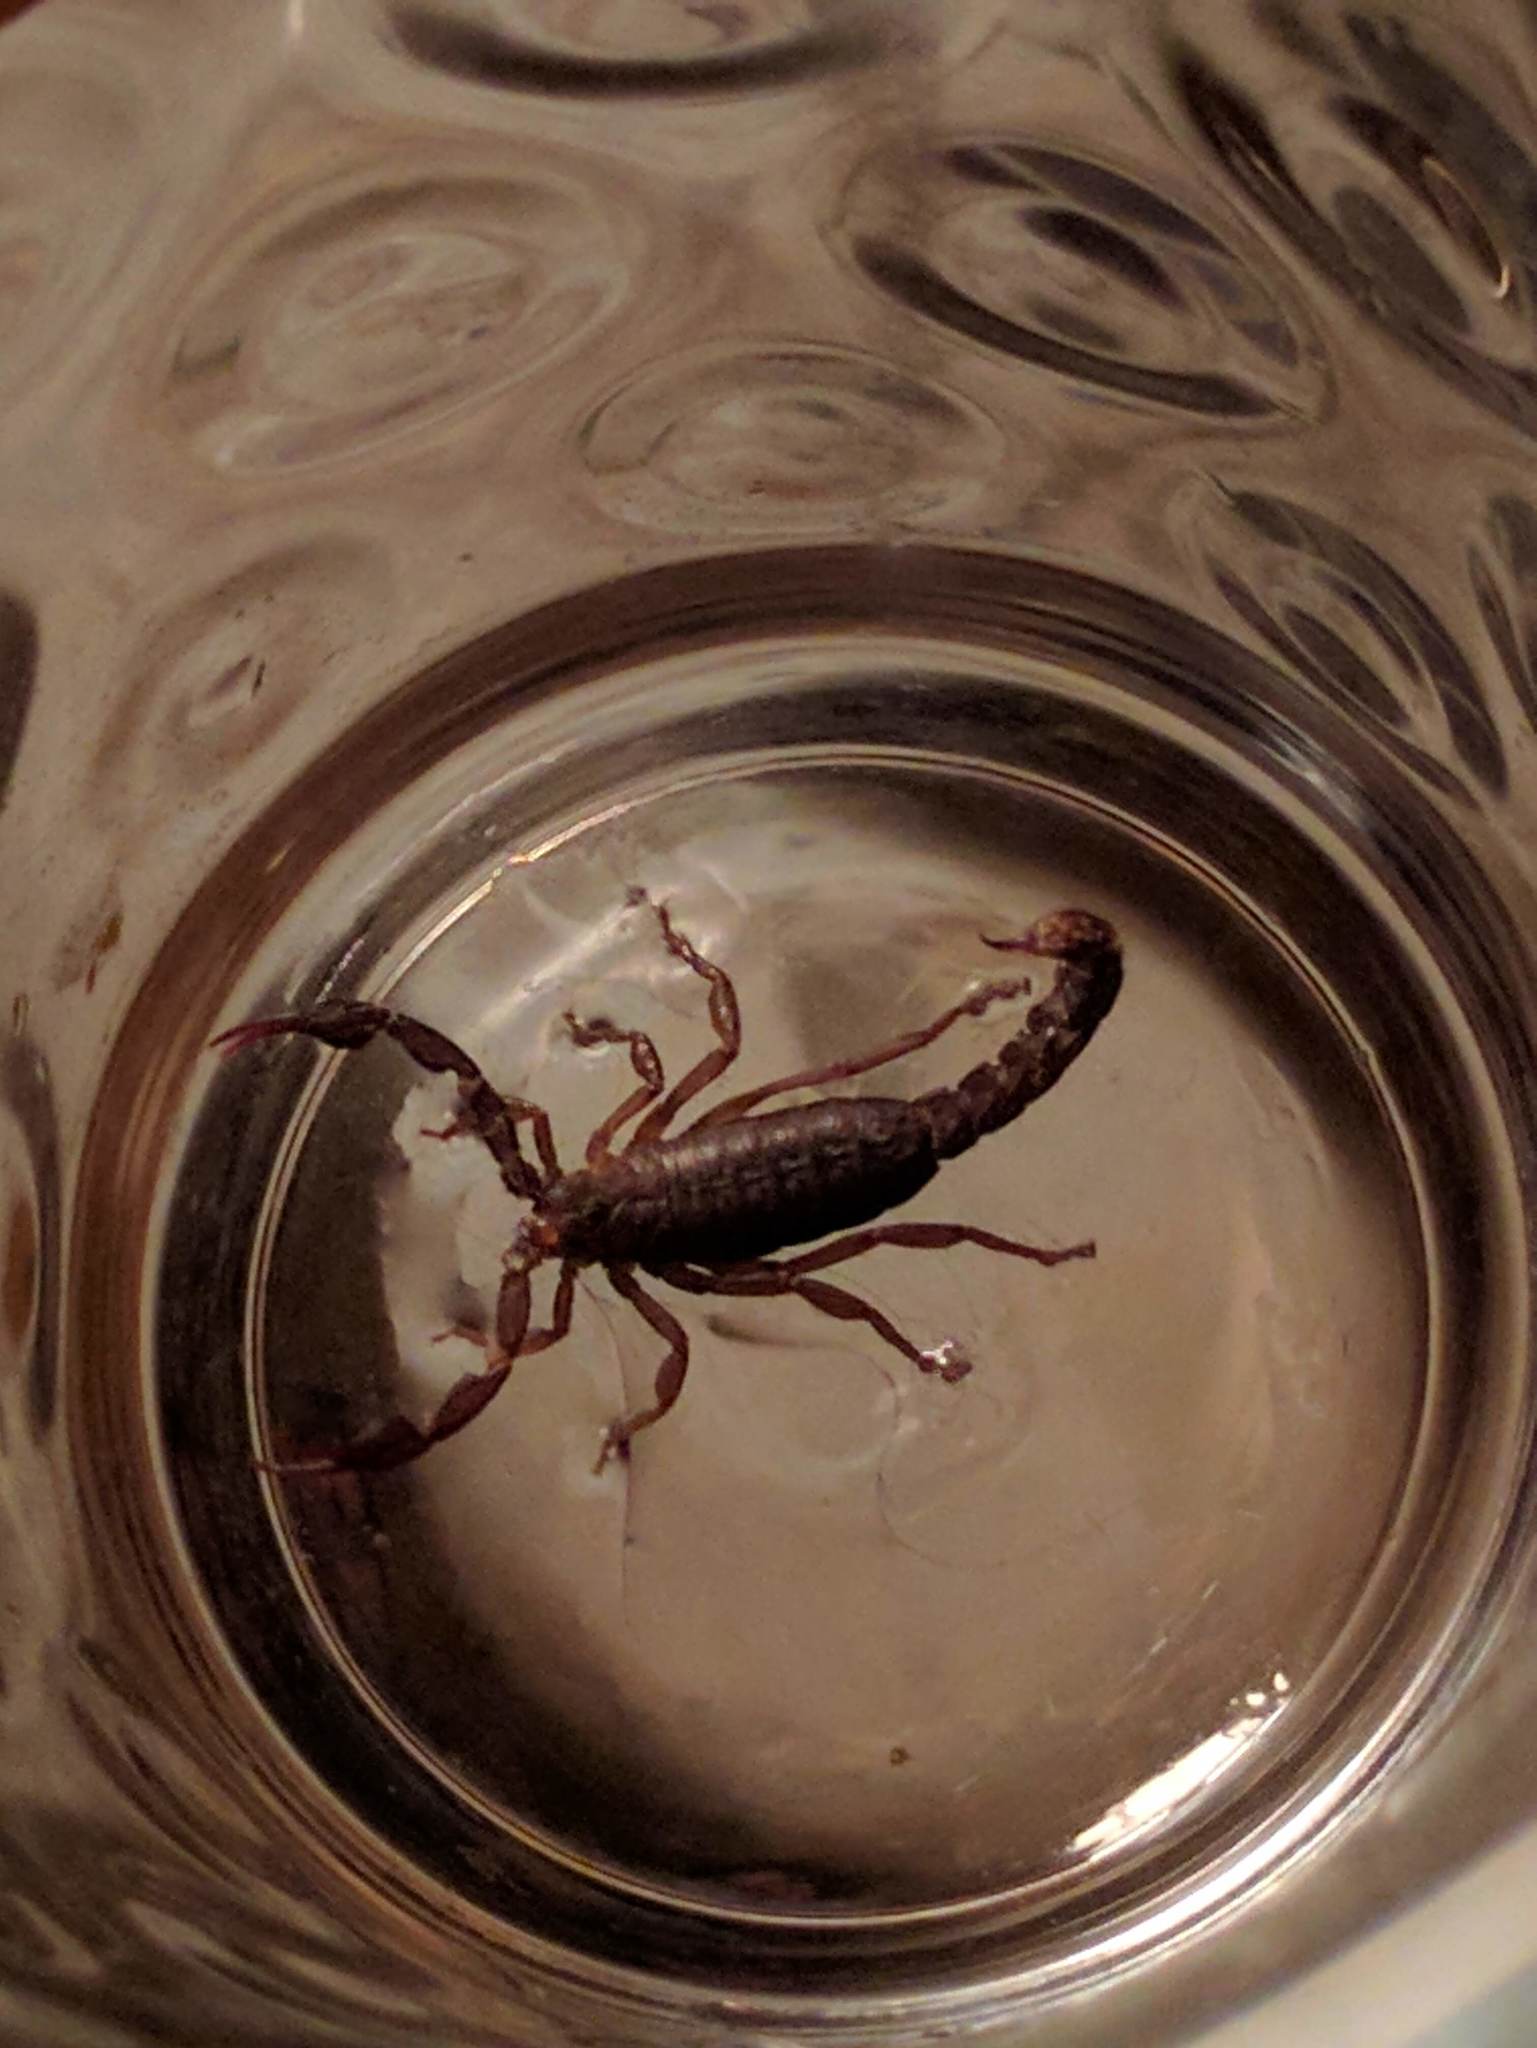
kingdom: Animalia
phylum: Arthropoda
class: Arachnida
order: Scorpiones
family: Vaejovidae
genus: Vaejovis
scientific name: Vaejovis carolinianus
